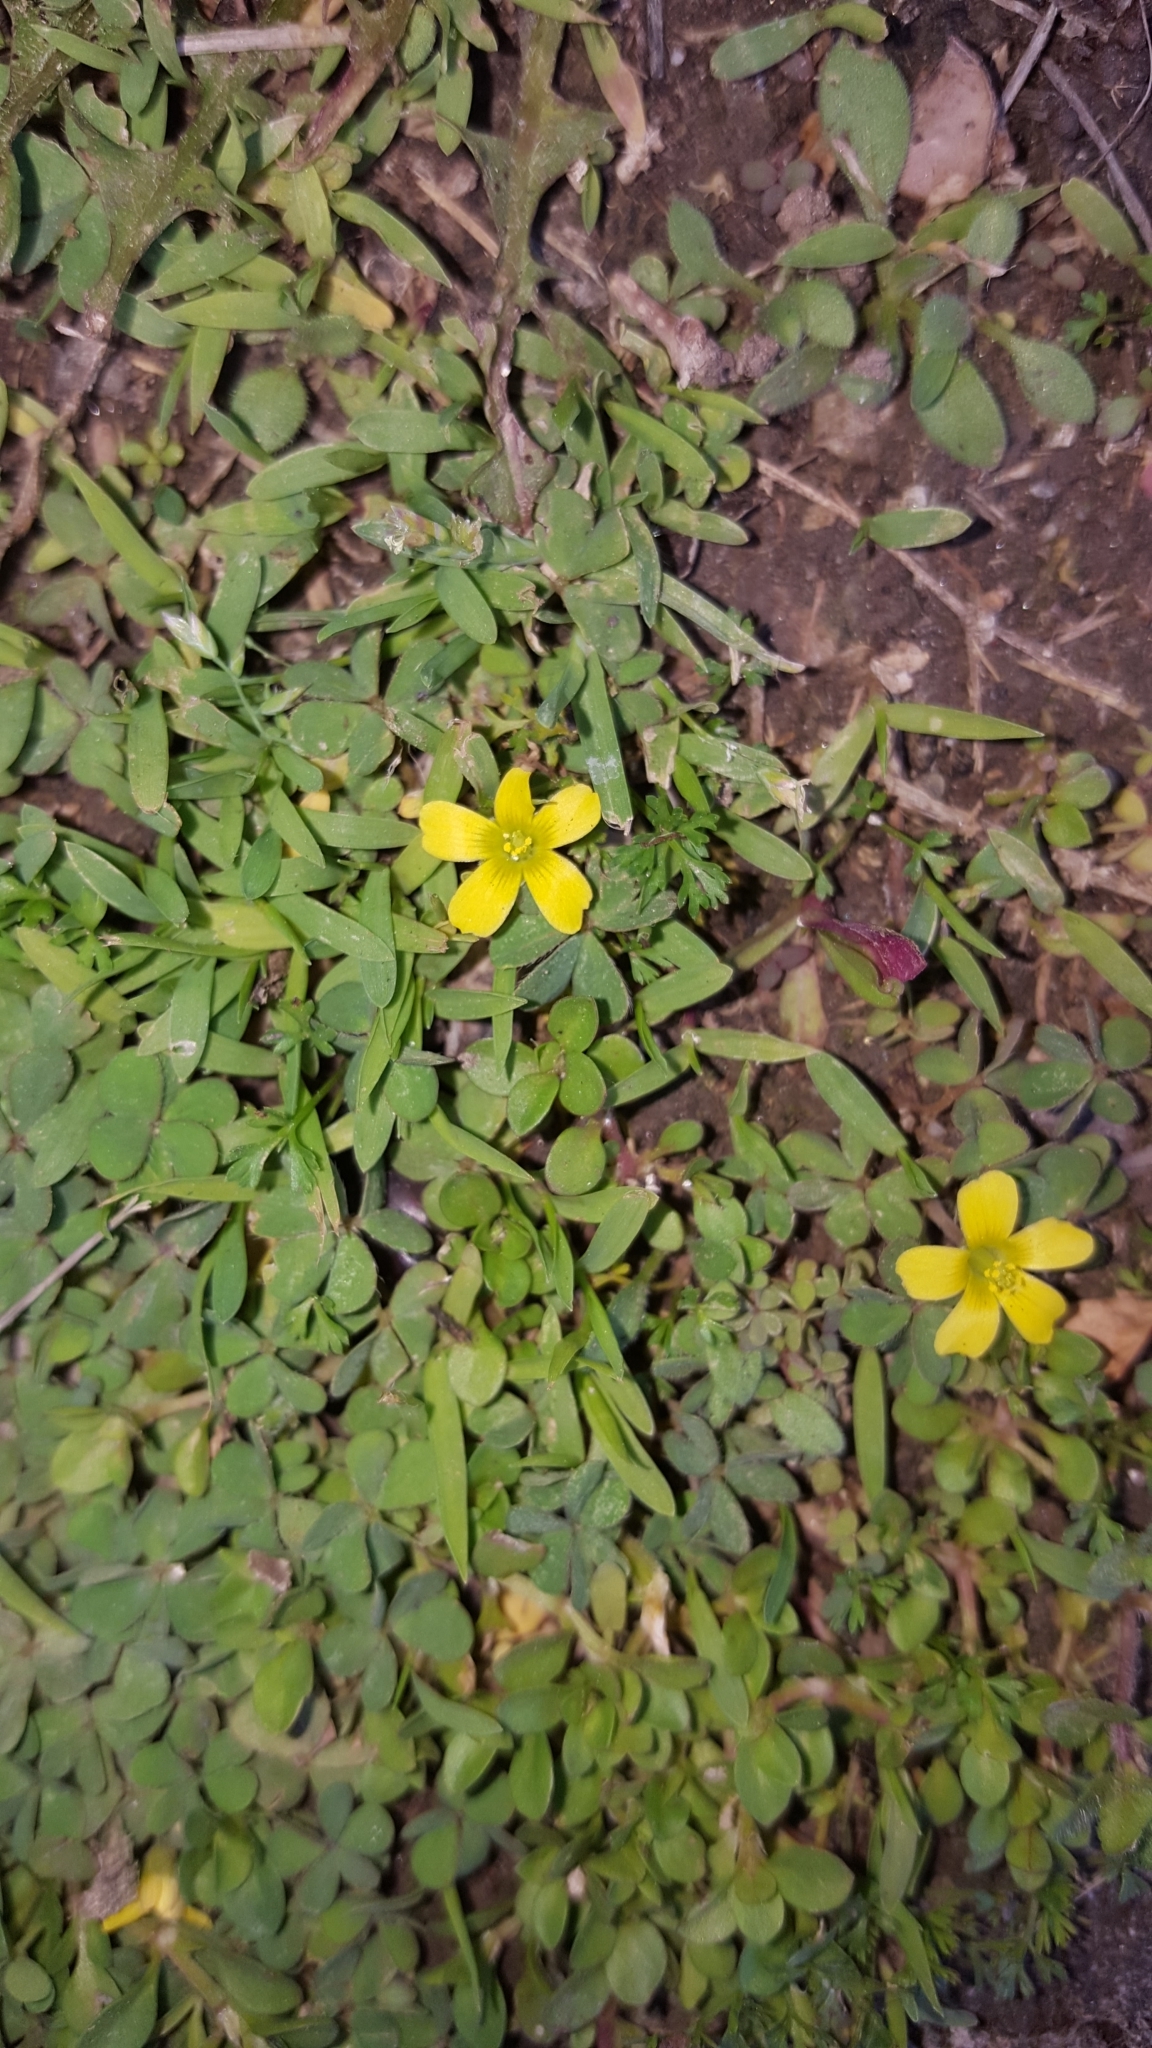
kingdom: Plantae
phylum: Tracheophyta
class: Magnoliopsida
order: Oxalidales
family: Oxalidaceae
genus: Oxalis
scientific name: Oxalis corniculata
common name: Procumbent yellow-sorrel
